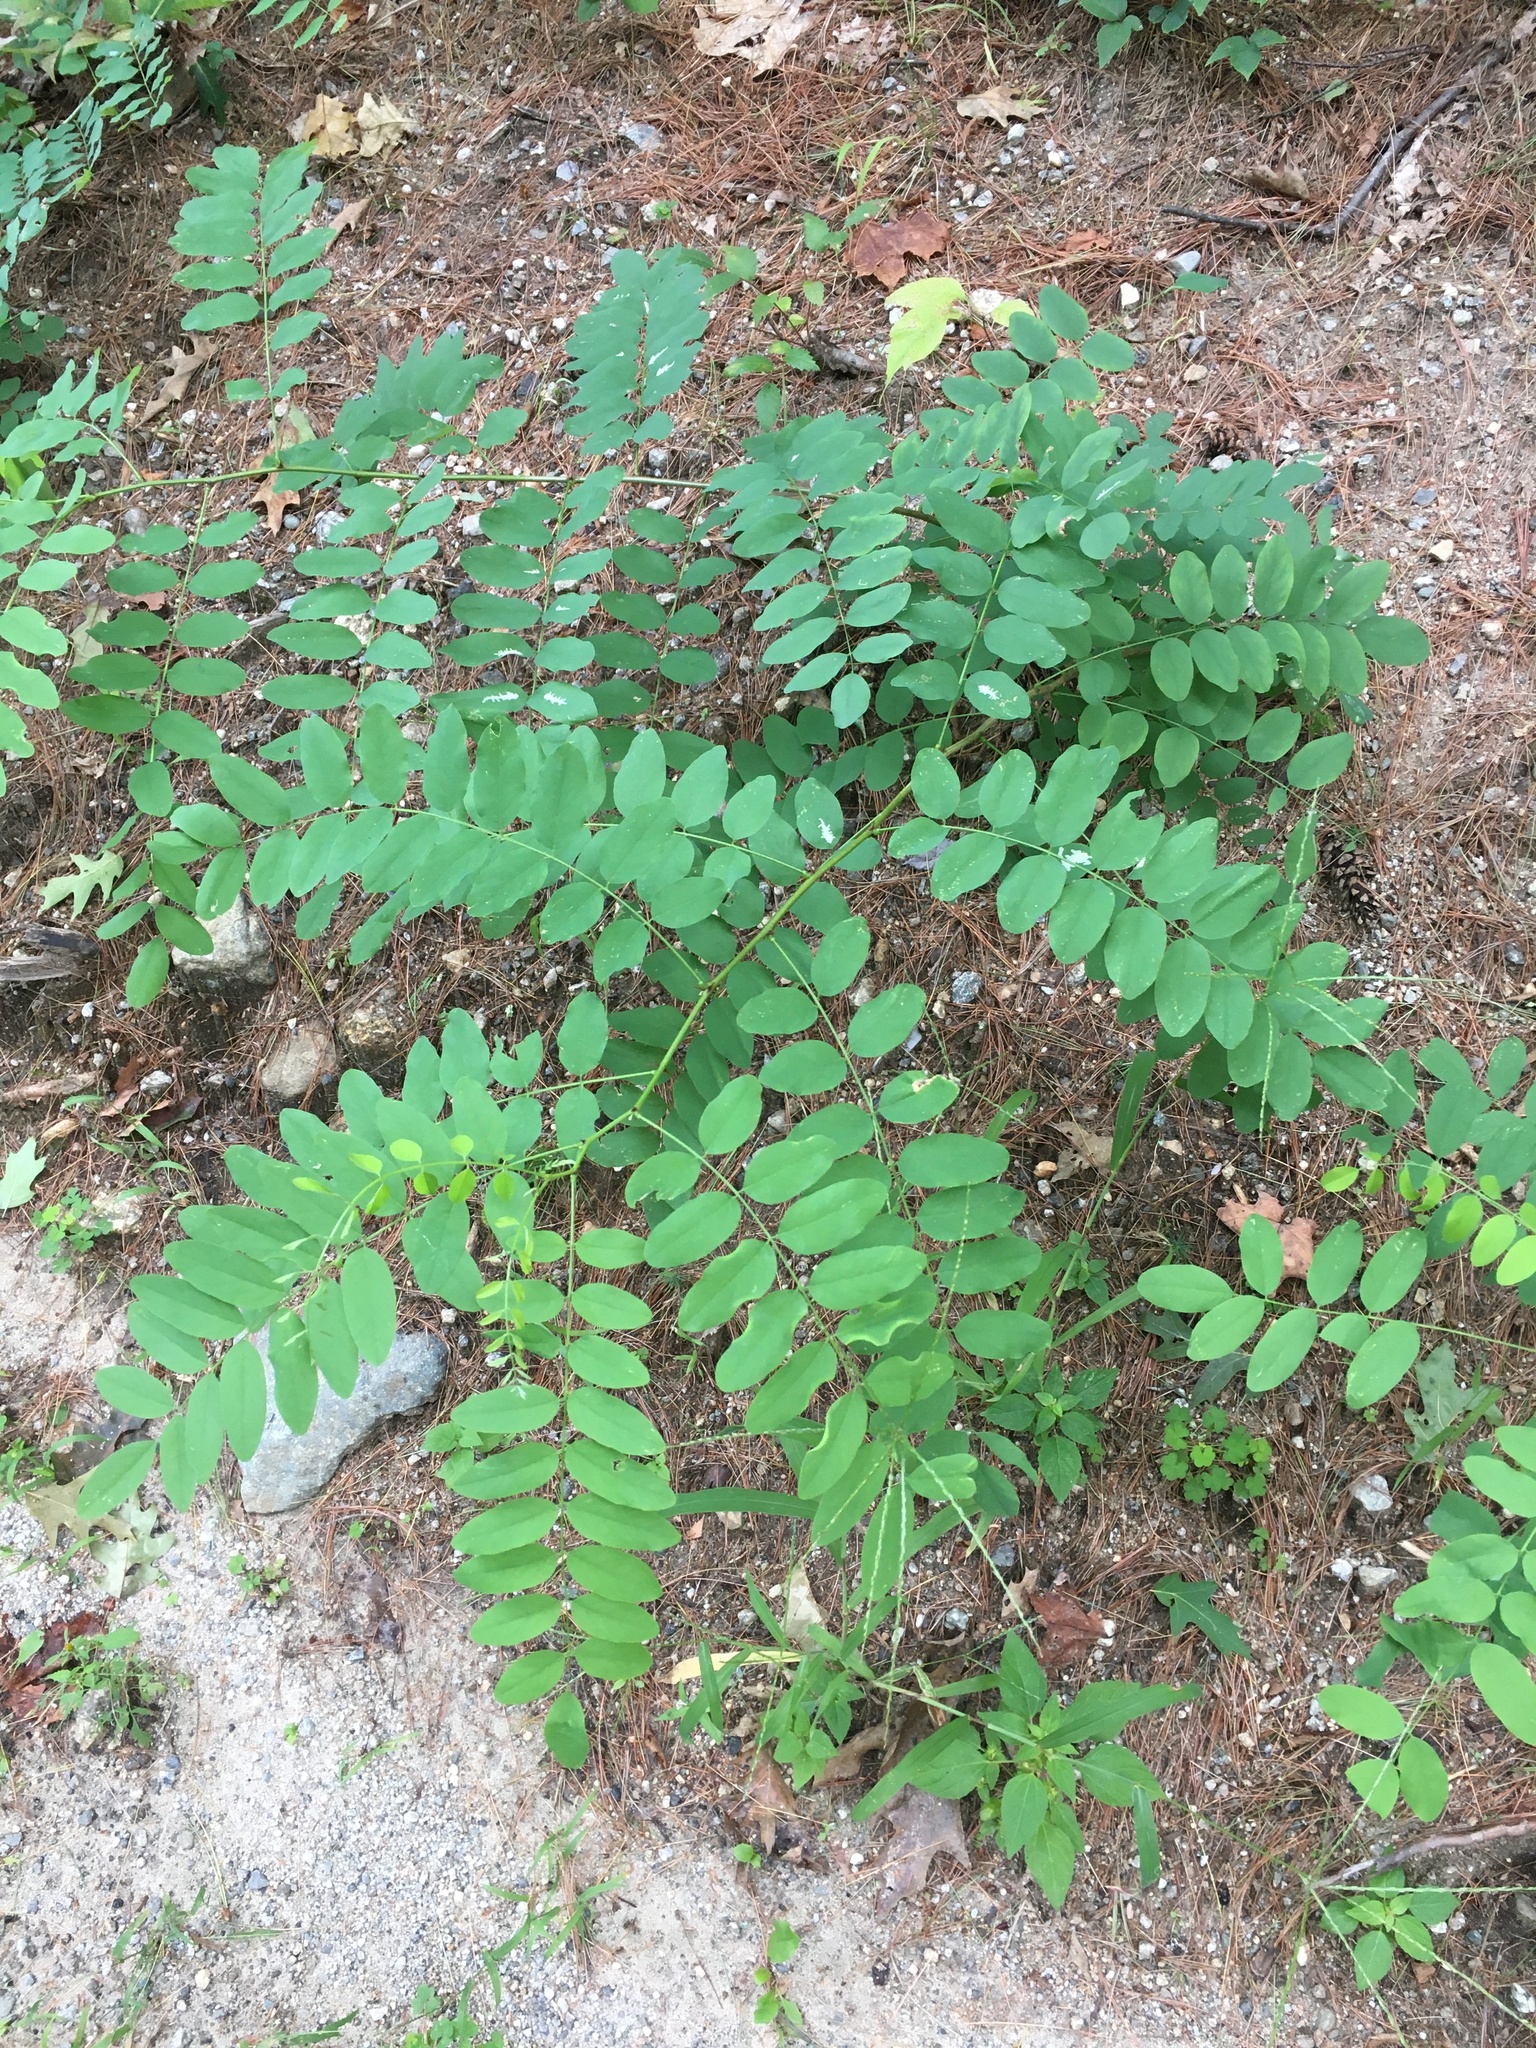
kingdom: Plantae
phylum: Tracheophyta
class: Magnoliopsida
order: Fabales
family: Fabaceae
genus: Robinia
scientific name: Robinia pseudoacacia
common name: Black locust
